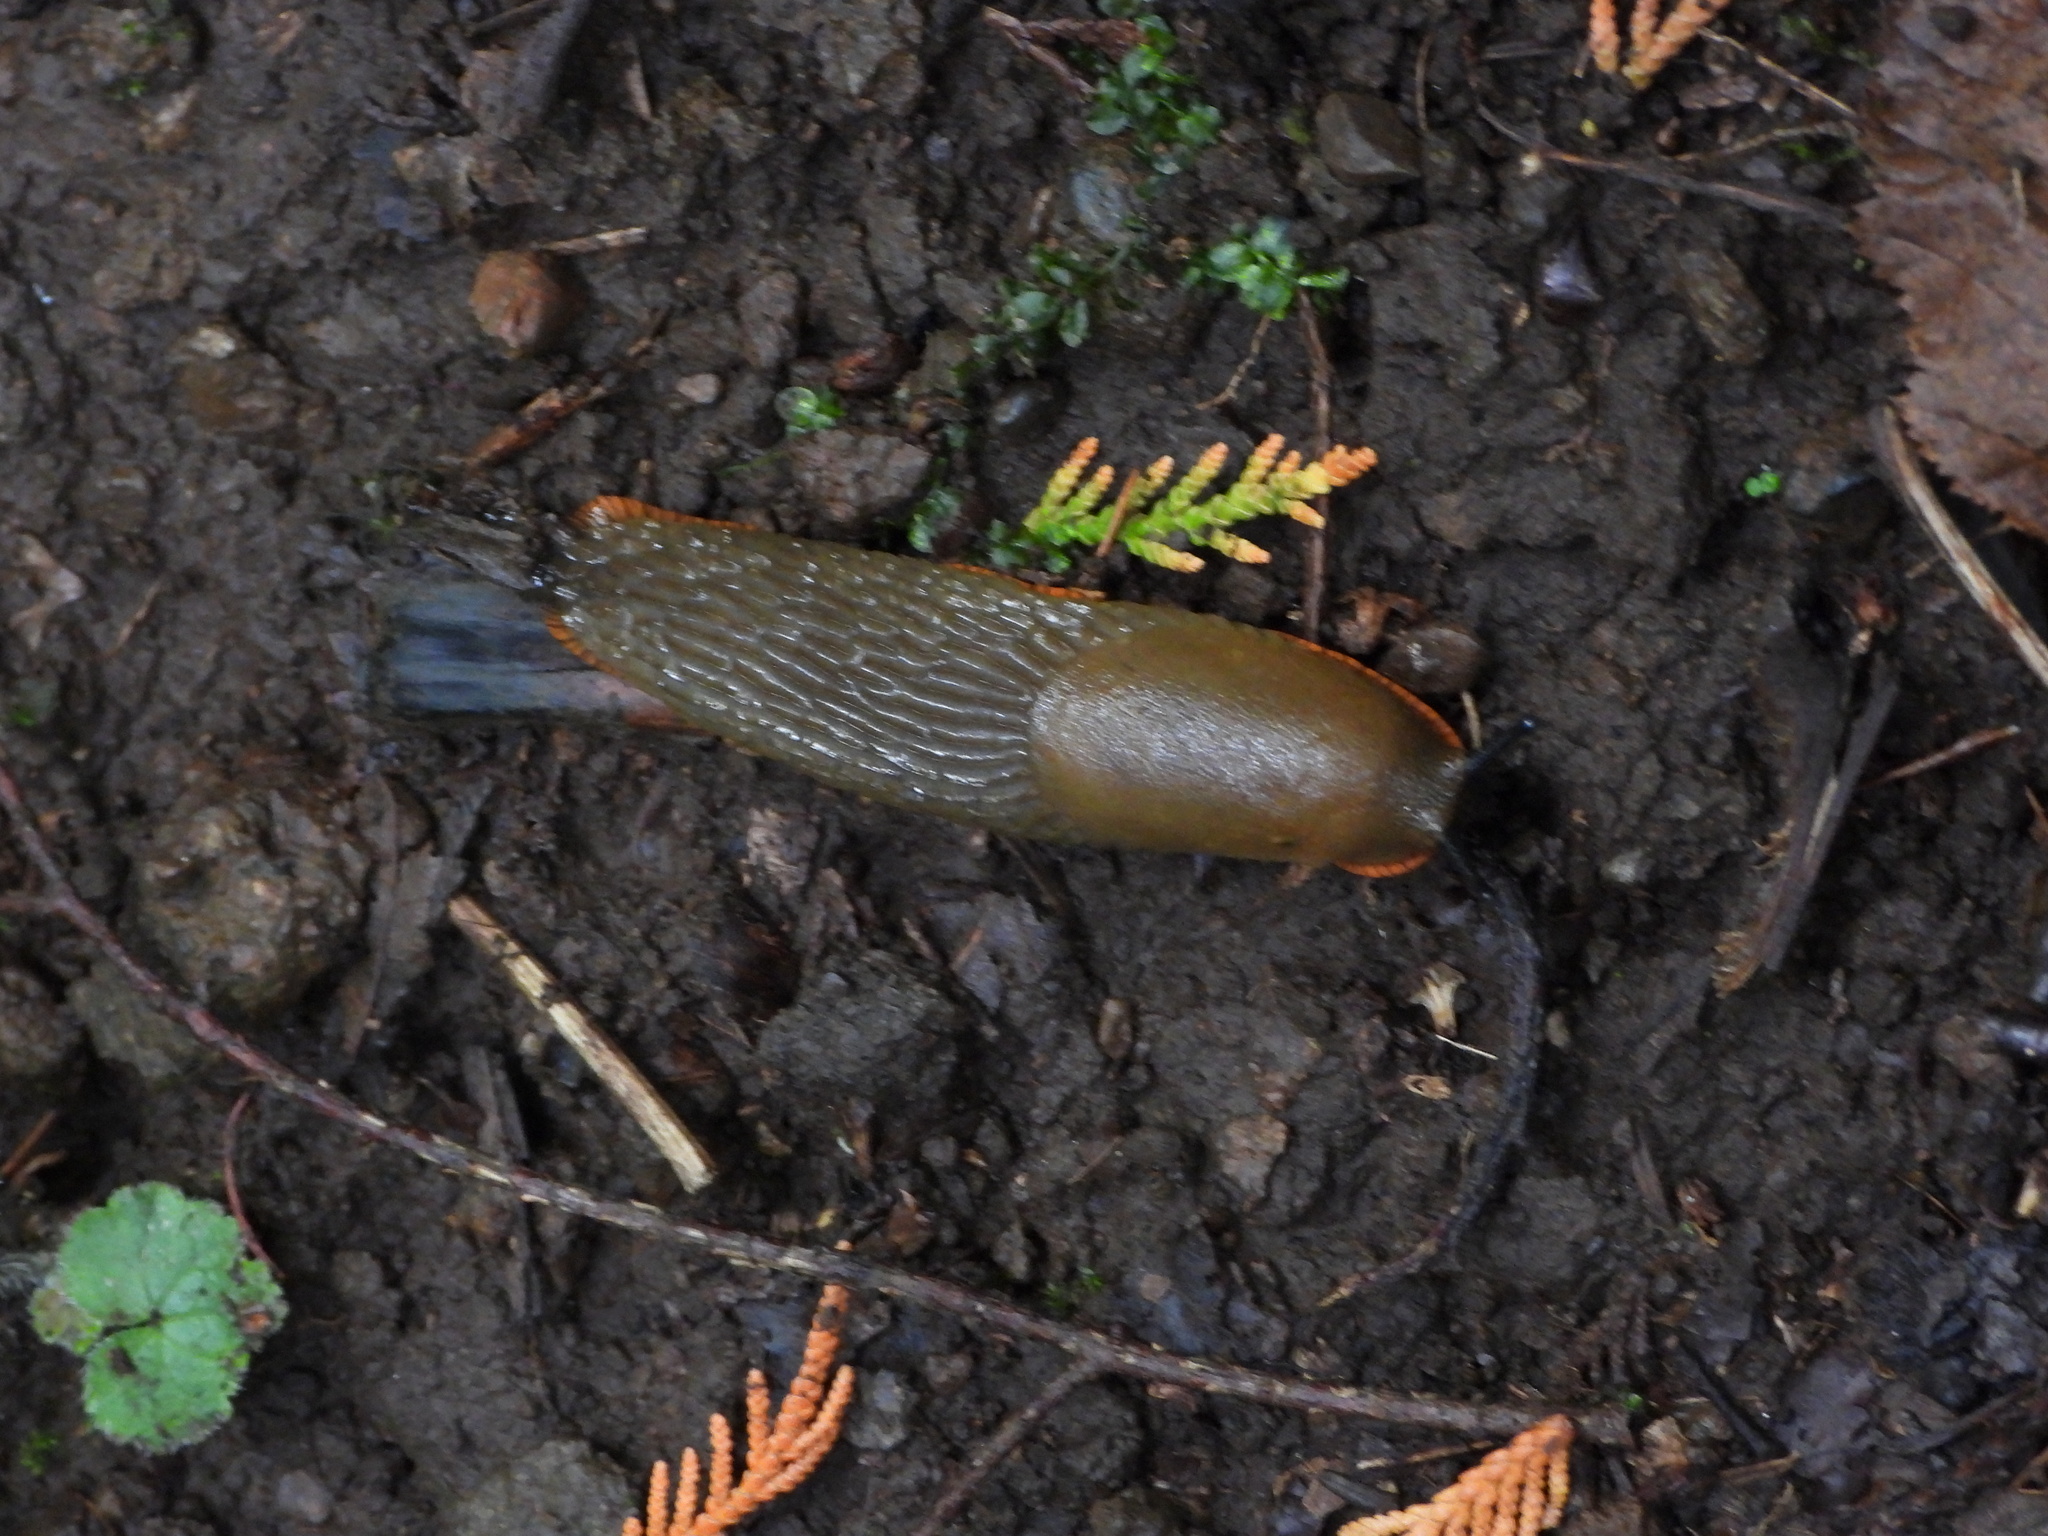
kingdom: Animalia
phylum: Mollusca
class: Gastropoda
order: Stylommatophora
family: Arionidae
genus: Arion
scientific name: Arion rufus
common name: Chocolate arion
